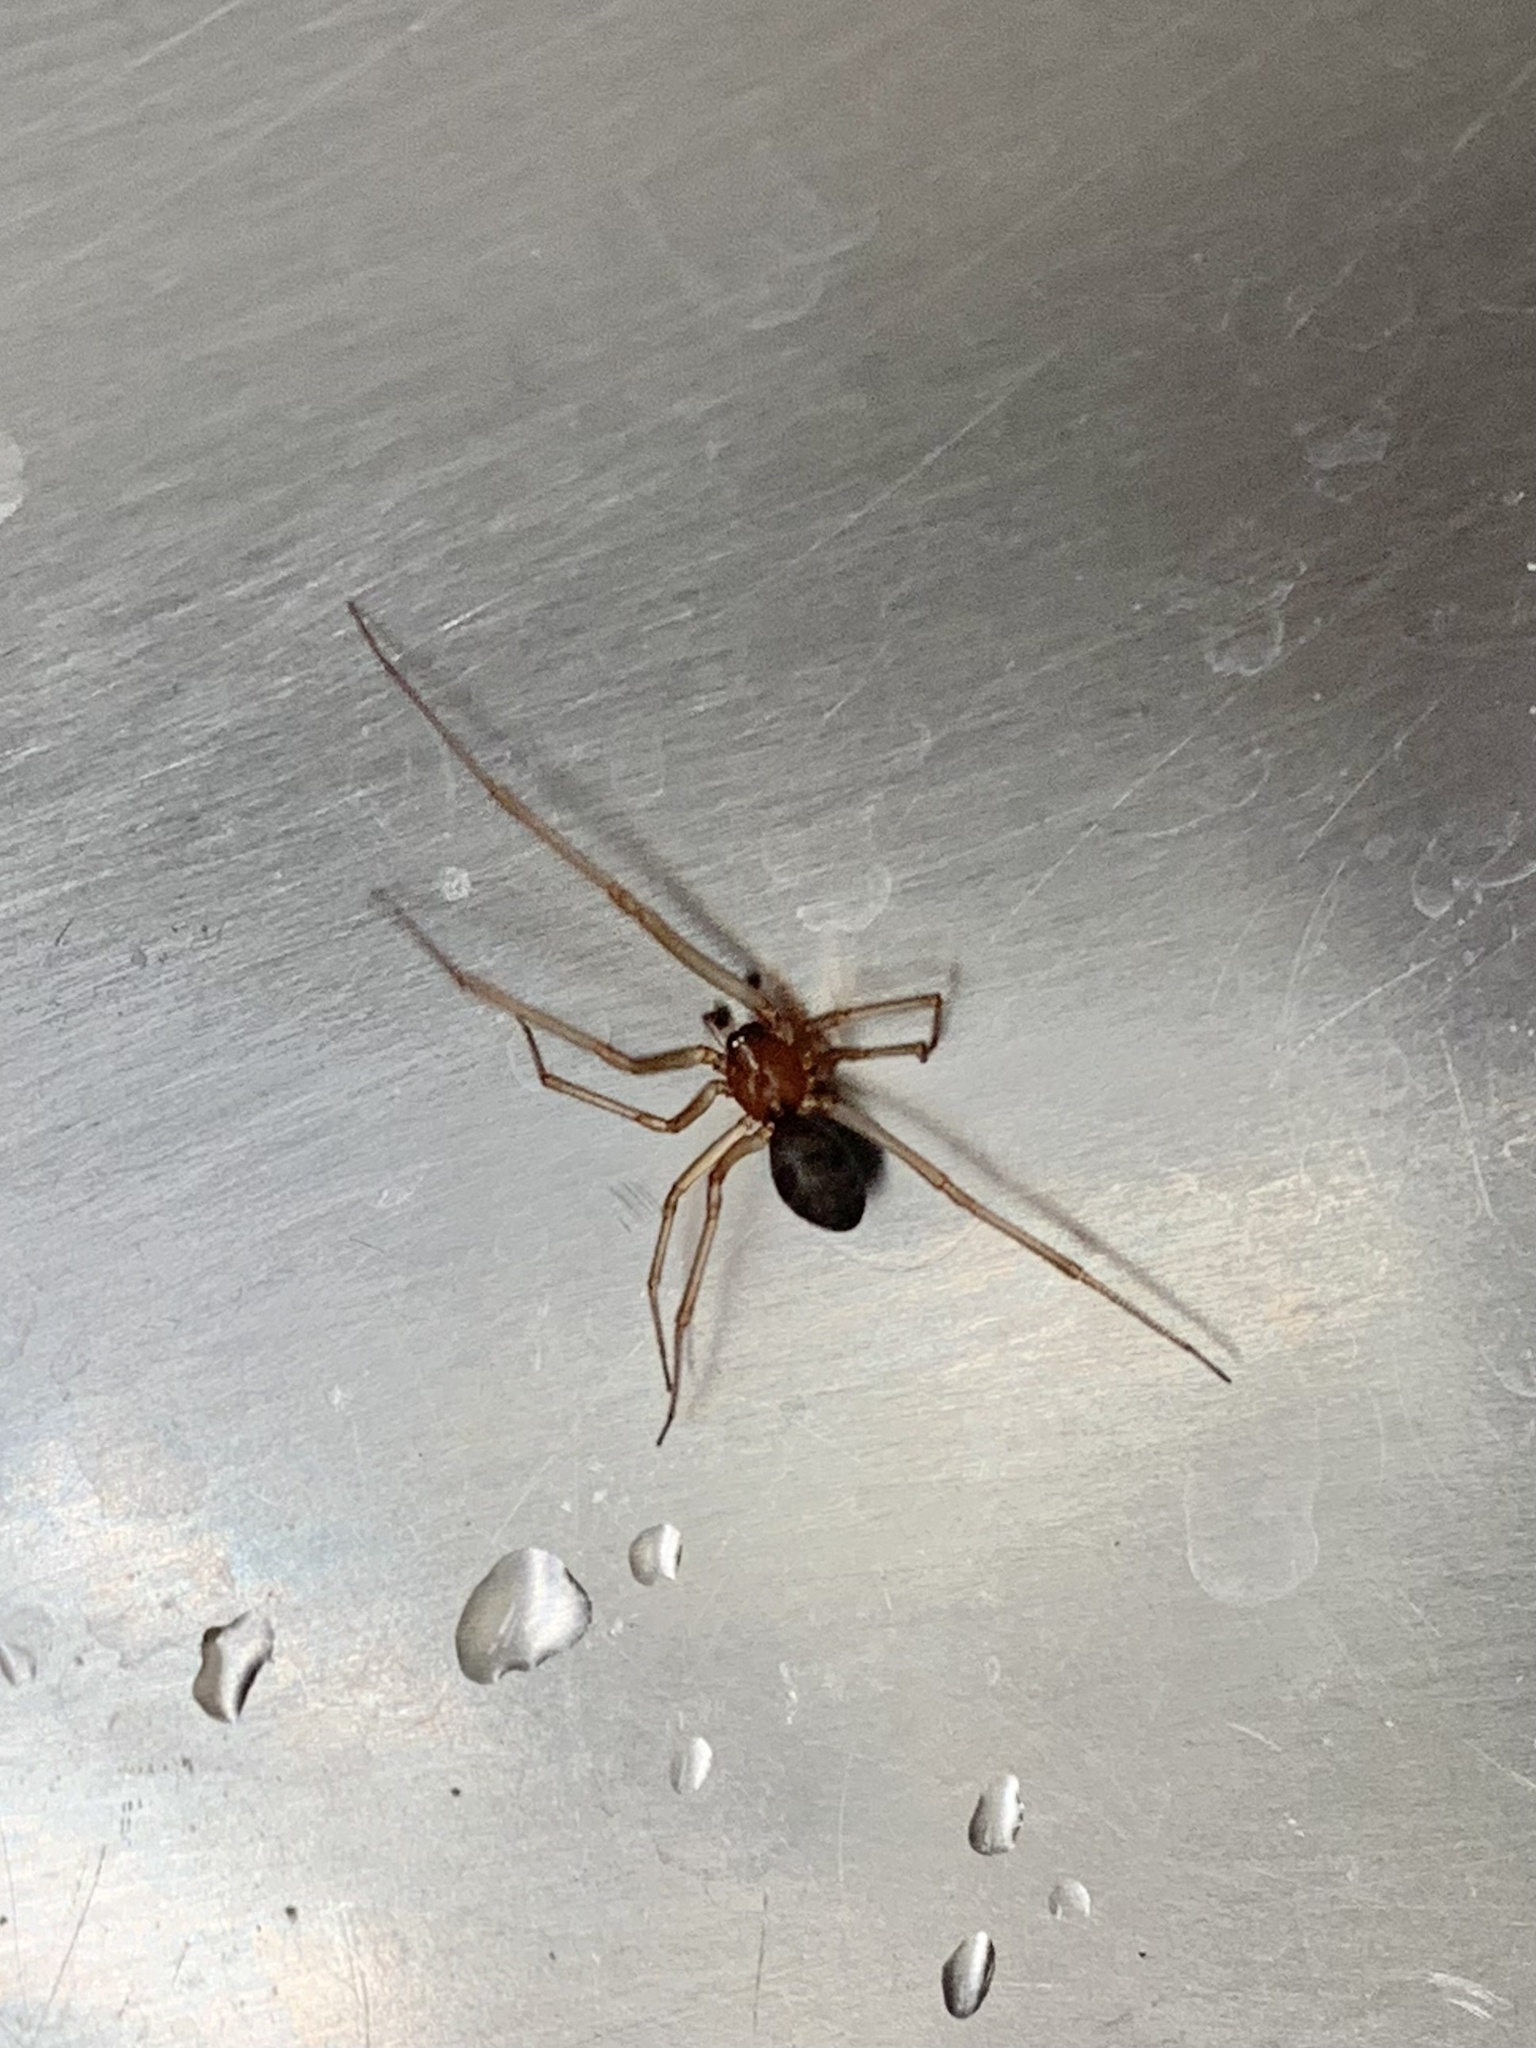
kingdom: Animalia
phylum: Arthropoda
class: Arachnida
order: Araneae
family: Theridiidae
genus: Steatoda
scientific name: Steatoda grossa
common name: False black widow
